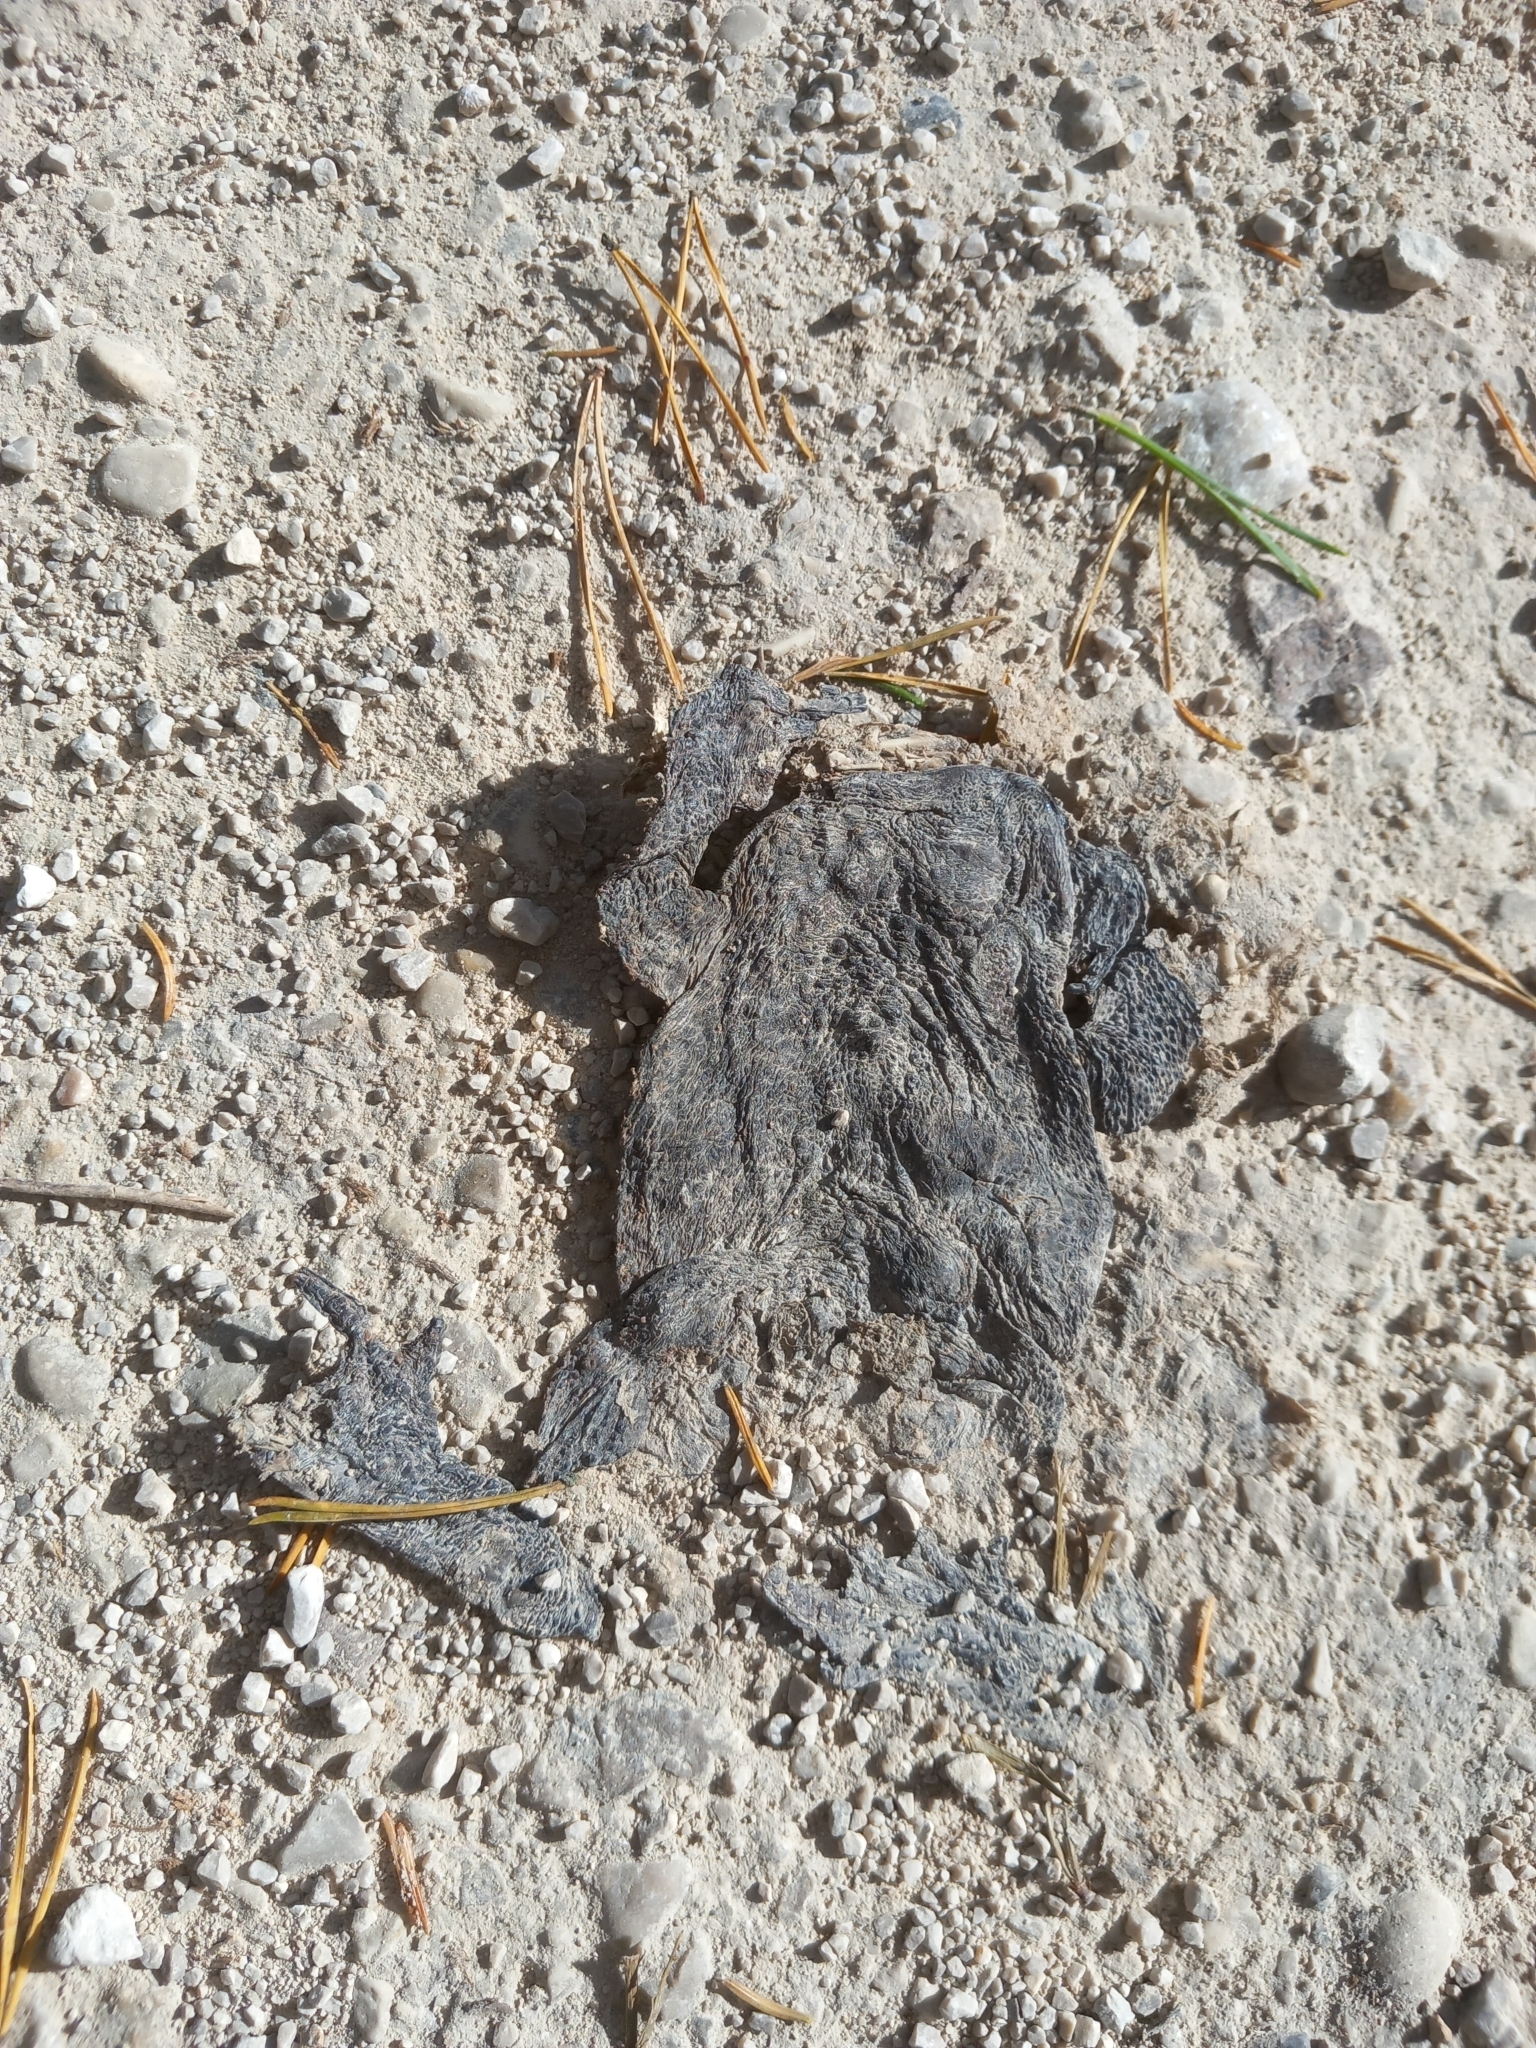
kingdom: Animalia
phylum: Chordata
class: Amphibia
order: Anura
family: Bufonidae
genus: Bufo
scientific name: Bufo bufo
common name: Common toad
